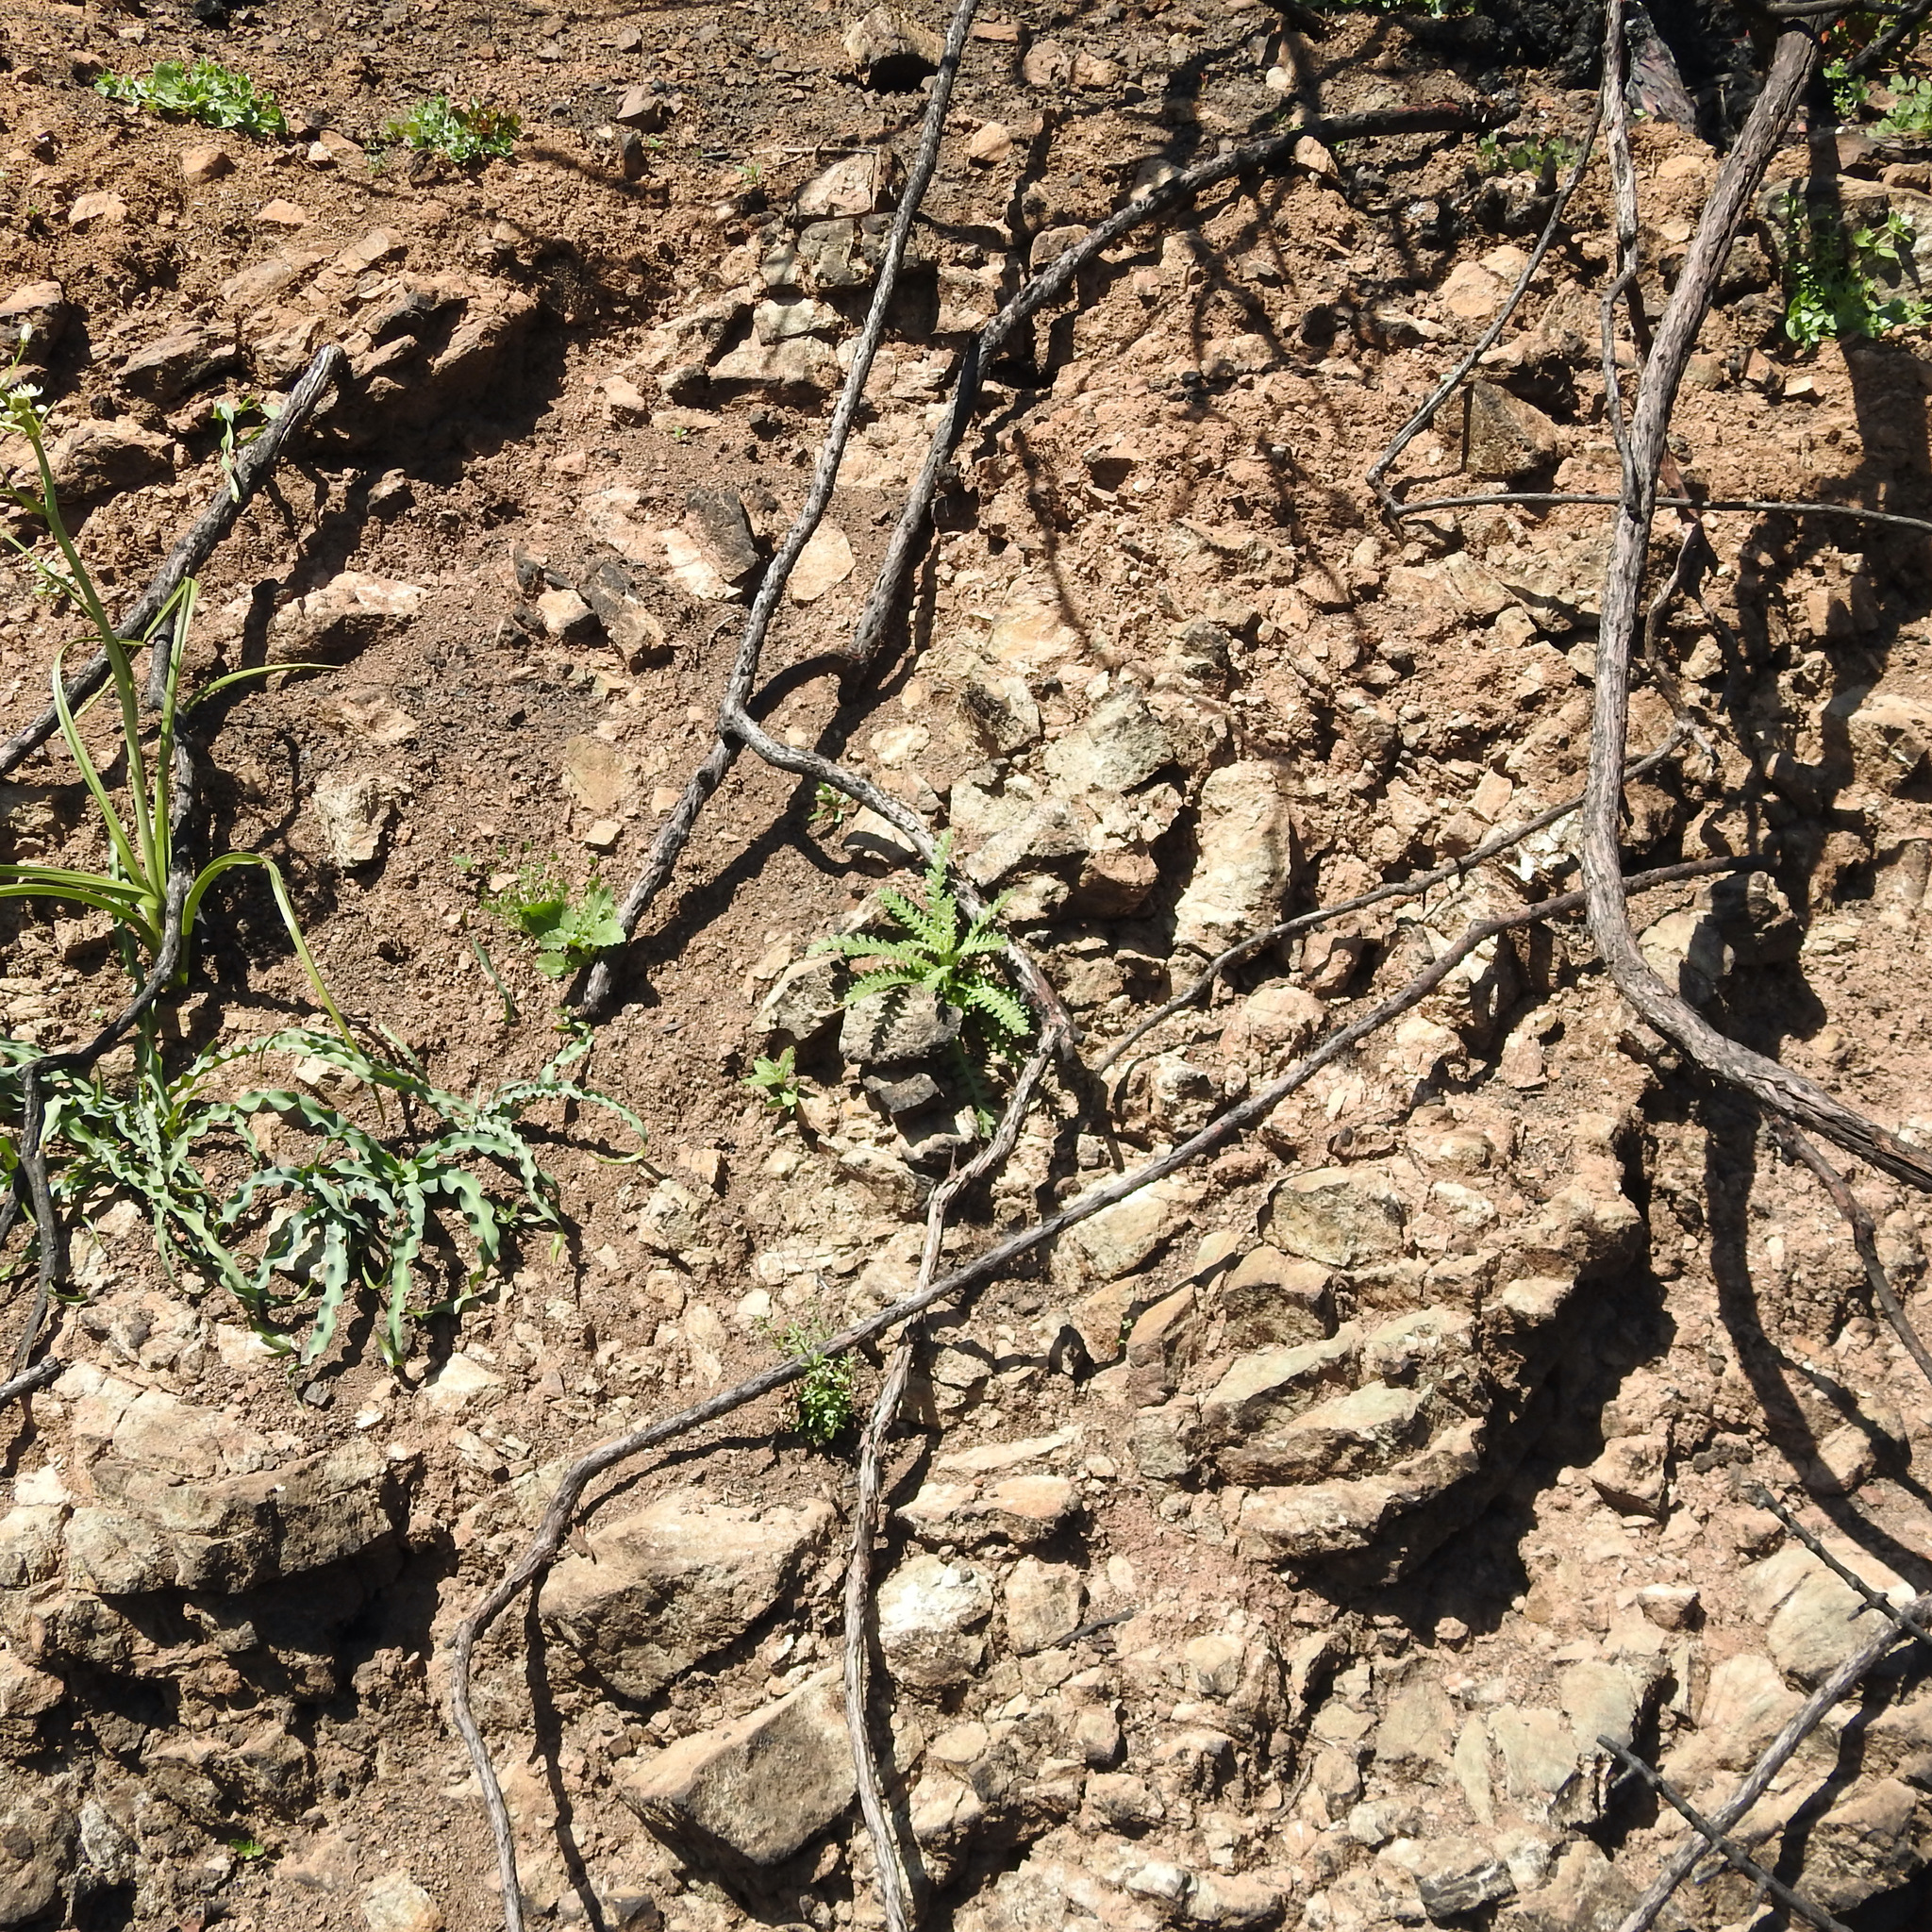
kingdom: Plantae
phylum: Tracheophyta
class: Liliopsida
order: Asparagales
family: Asparagaceae
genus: Chlorogalum
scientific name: Chlorogalum pomeridianum
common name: Amole
